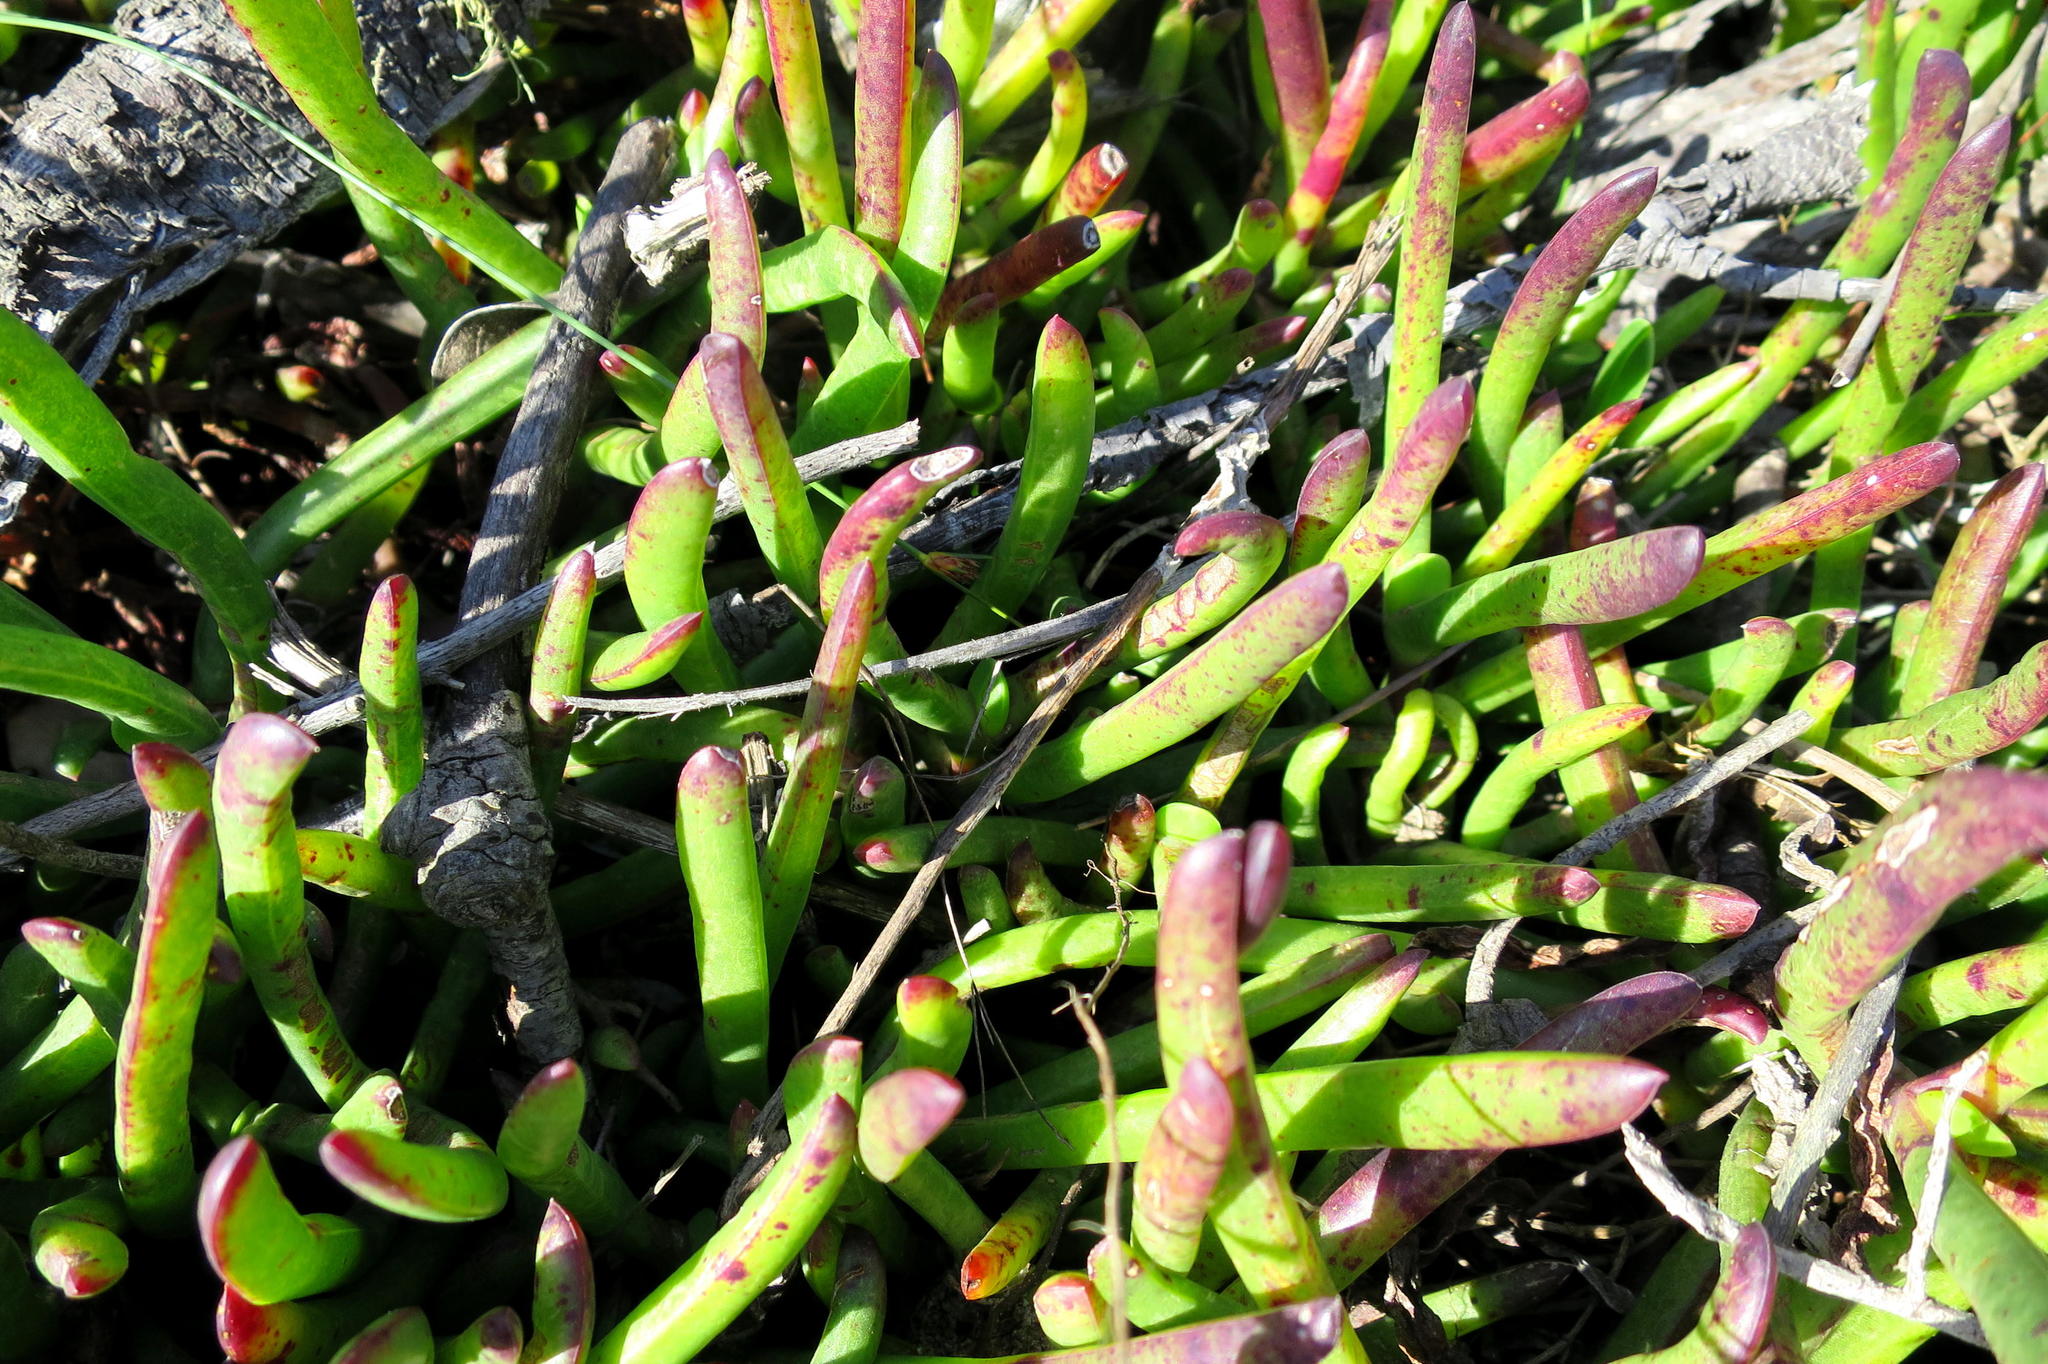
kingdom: Plantae
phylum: Tracheophyta
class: Magnoliopsida
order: Caryophyllales
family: Aizoaceae
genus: Carpobrotus
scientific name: Carpobrotus muirii
